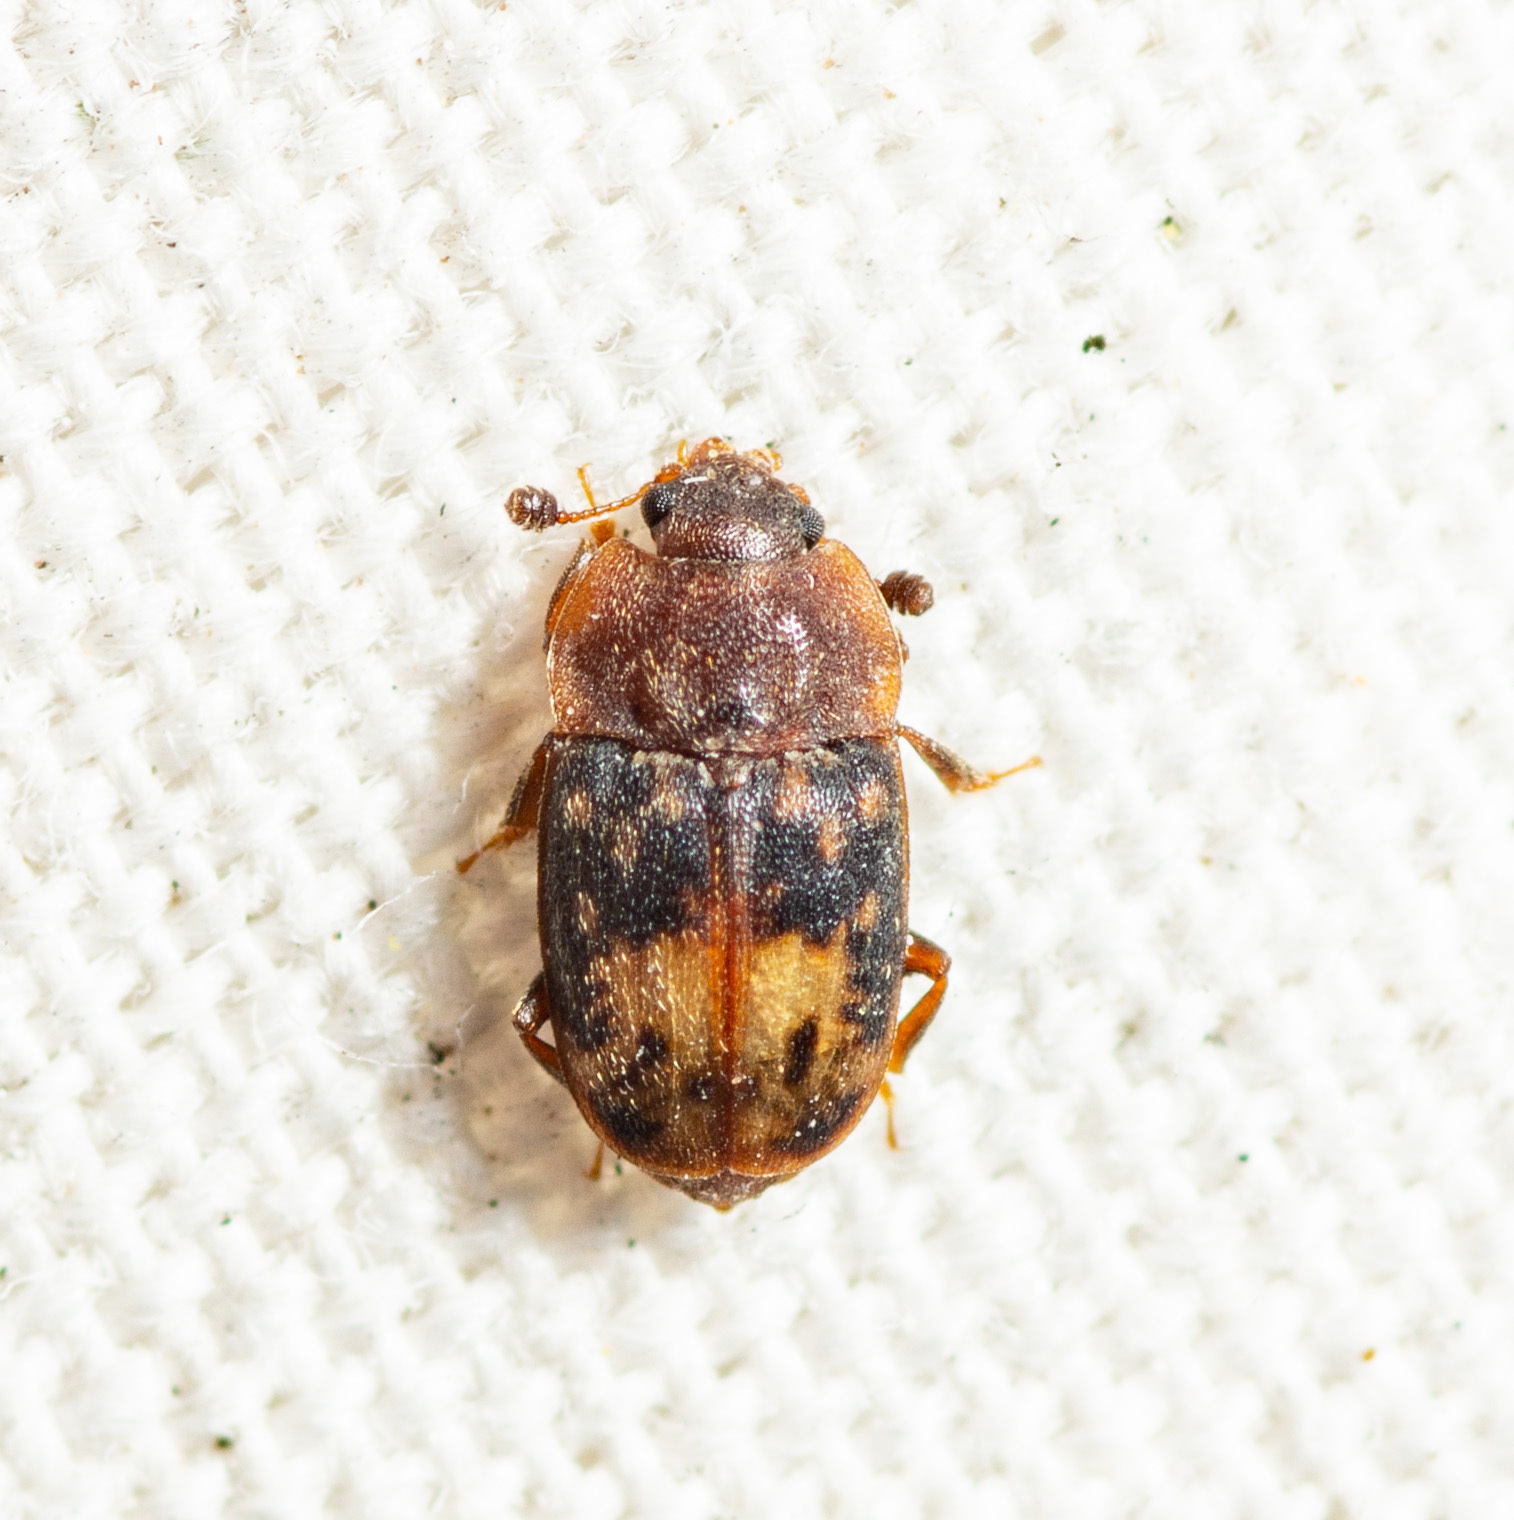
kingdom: Animalia
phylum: Arthropoda
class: Insecta
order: Coleoptera
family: Nitidulidae
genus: Omosita
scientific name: Omosita nearctica
